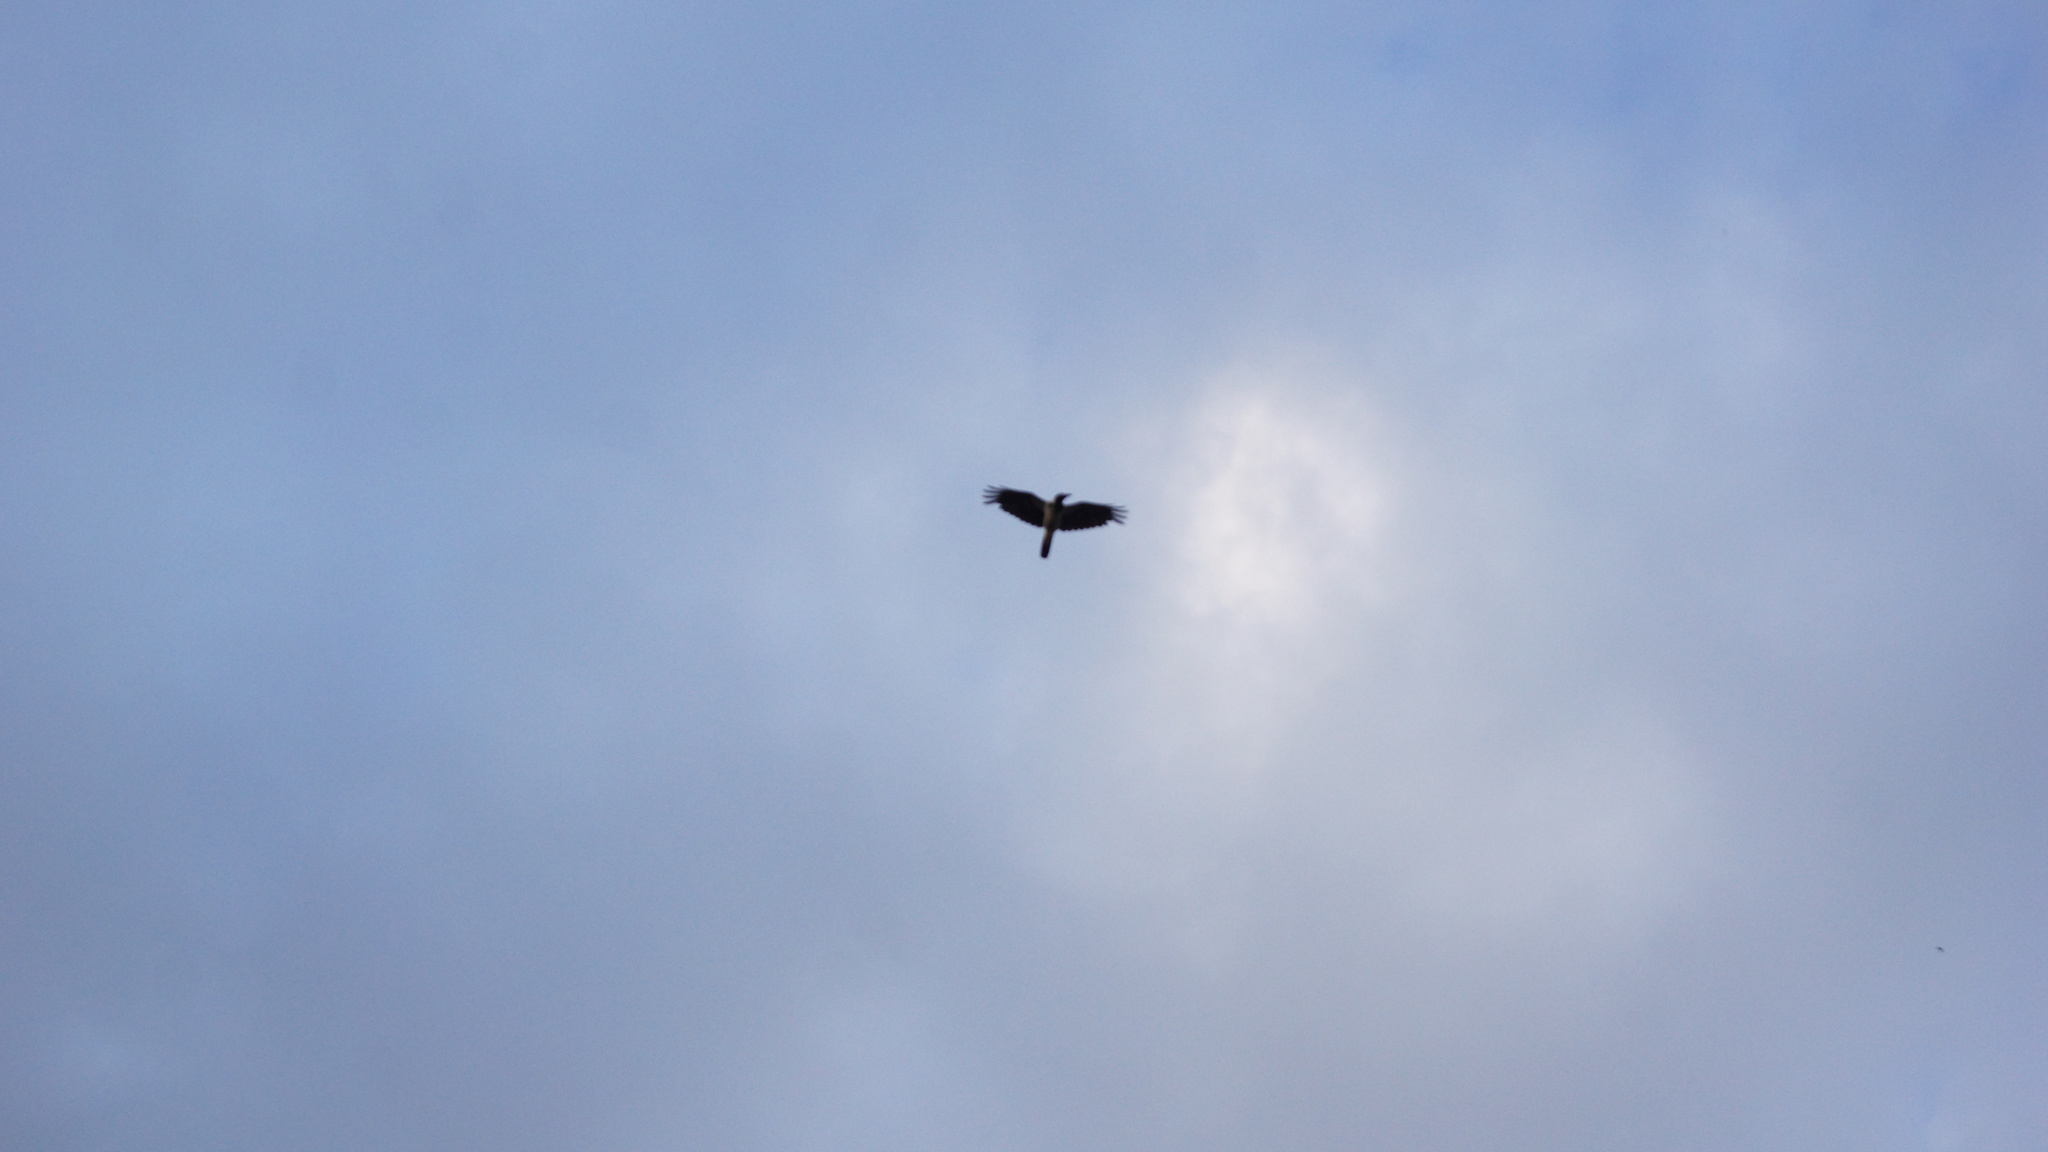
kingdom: Animalia
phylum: Chordata
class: Aves
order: Passeriformes
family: Corvidae
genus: Corvus
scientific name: Corvus cornix
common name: Hooded crow
